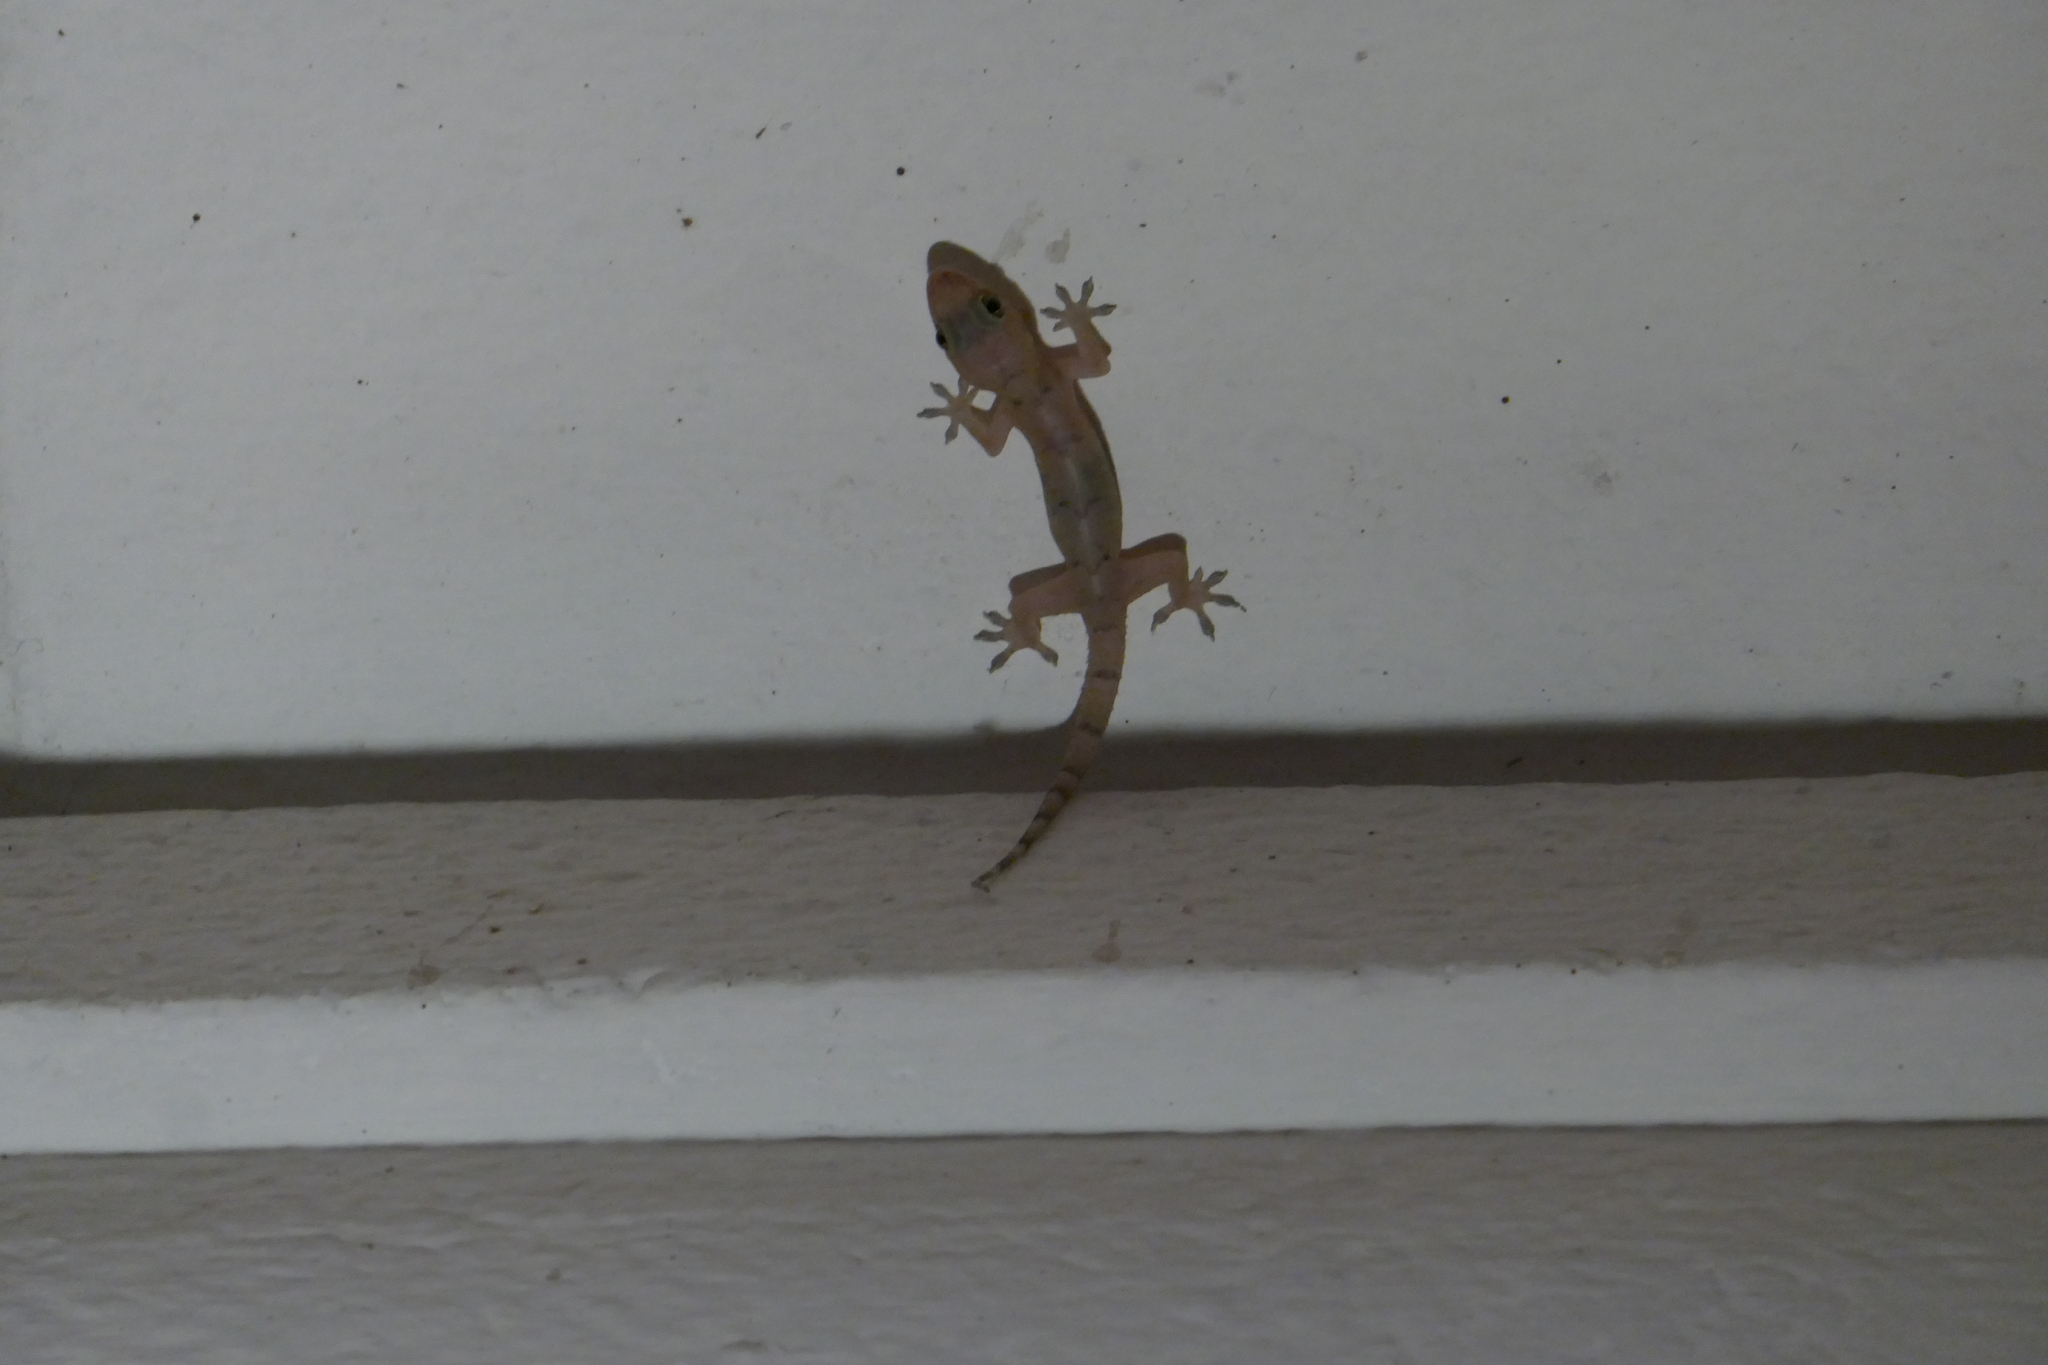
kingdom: Animalia
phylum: Chordata
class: Squamata
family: Gekkonidae
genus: Hemidactylus
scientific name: Hemidactylus mabouia
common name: House gecko
